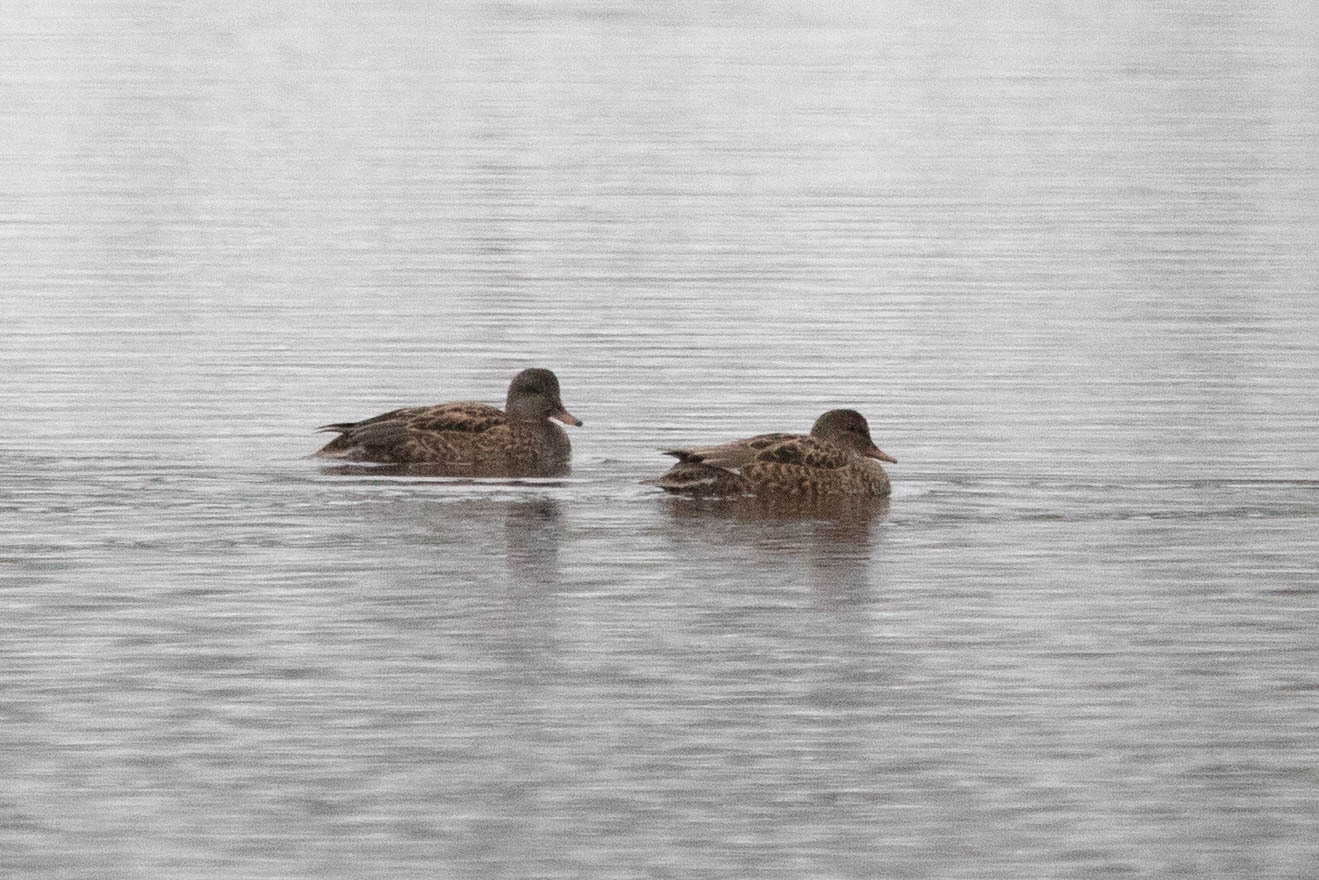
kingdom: Animalia
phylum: Chordata
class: Aves
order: Anseriformes
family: Anatidae
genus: Mareca
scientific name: Mareca strepera
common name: Gadwall
